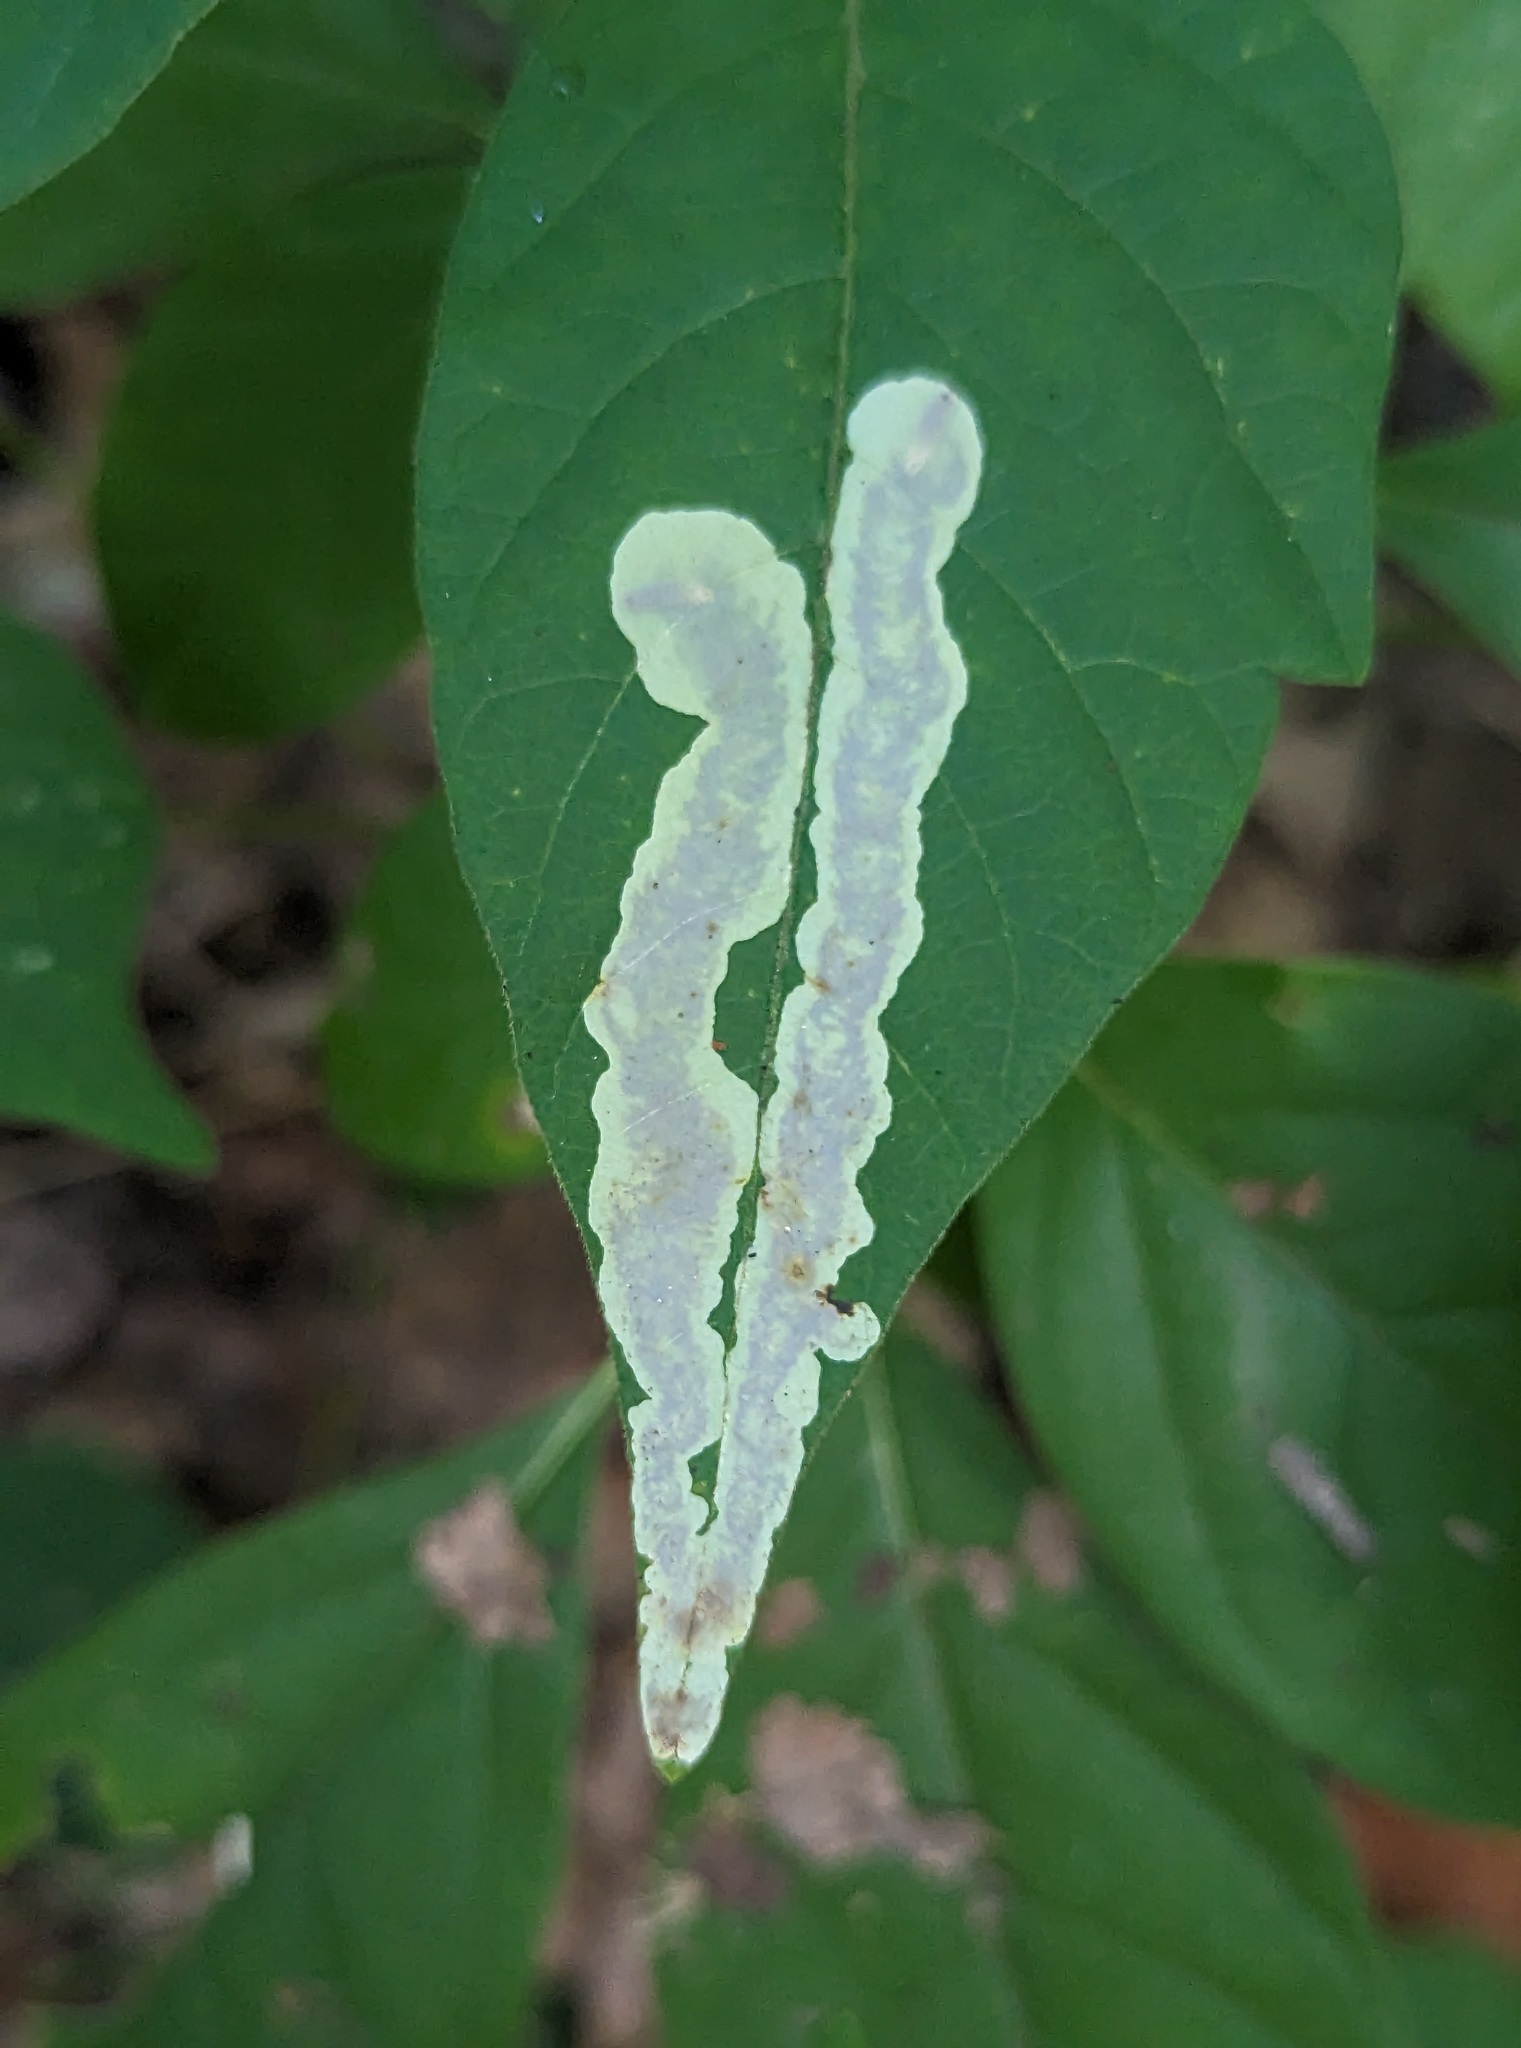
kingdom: Animalia
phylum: Arthropoda
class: Insecta
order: Lepidoptera
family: Gracillariidae
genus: Cameraria
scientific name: Cameraria guttifinitella
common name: Poison ivy leaf-miner moth
